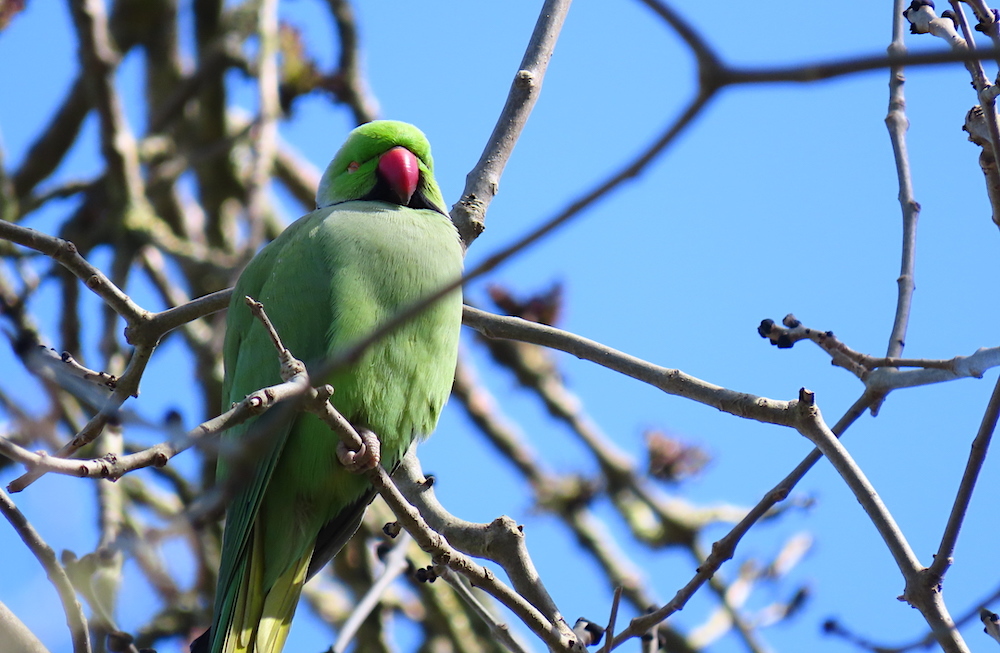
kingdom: Animalia
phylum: Chordata
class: Aves
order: Psittaciformes
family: Psittacidae
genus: Psittacula
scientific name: Psittacula krameri
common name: Rose-ringed parakeet
